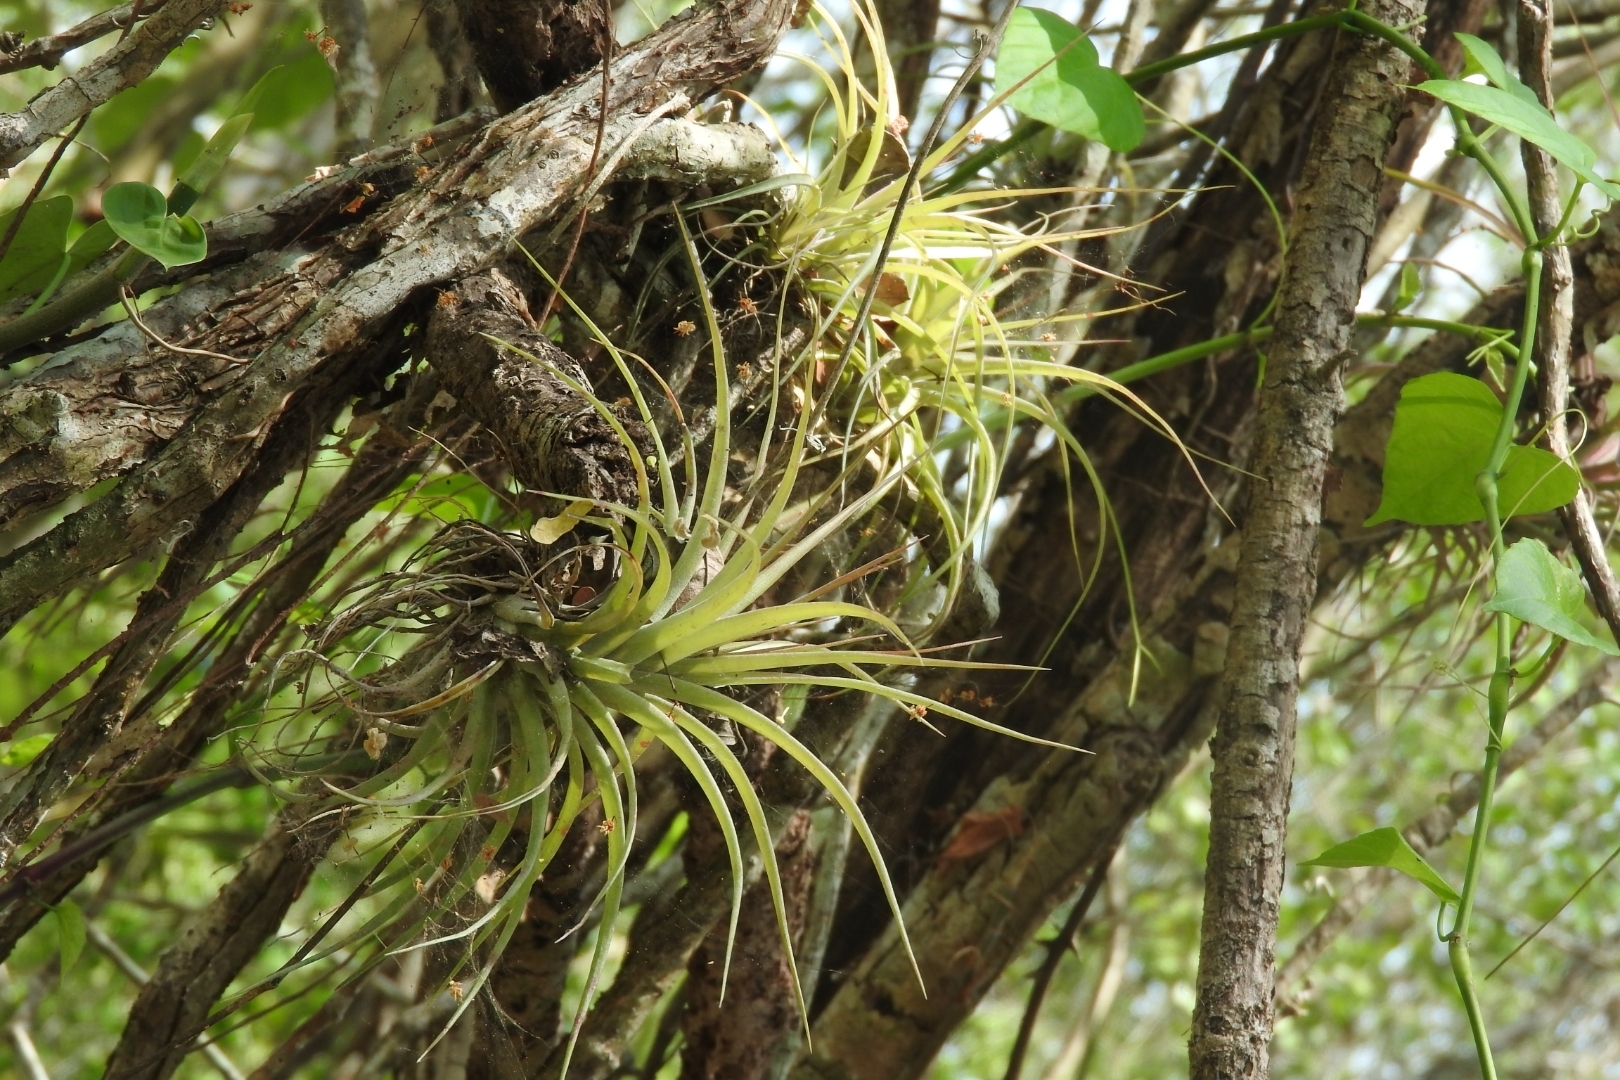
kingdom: Plantae
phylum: Tracheophyta
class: Liliopsida
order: Poales
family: Bromeliaceae
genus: Tillandsia
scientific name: Tillandsia fasciculata
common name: Giant airplant
